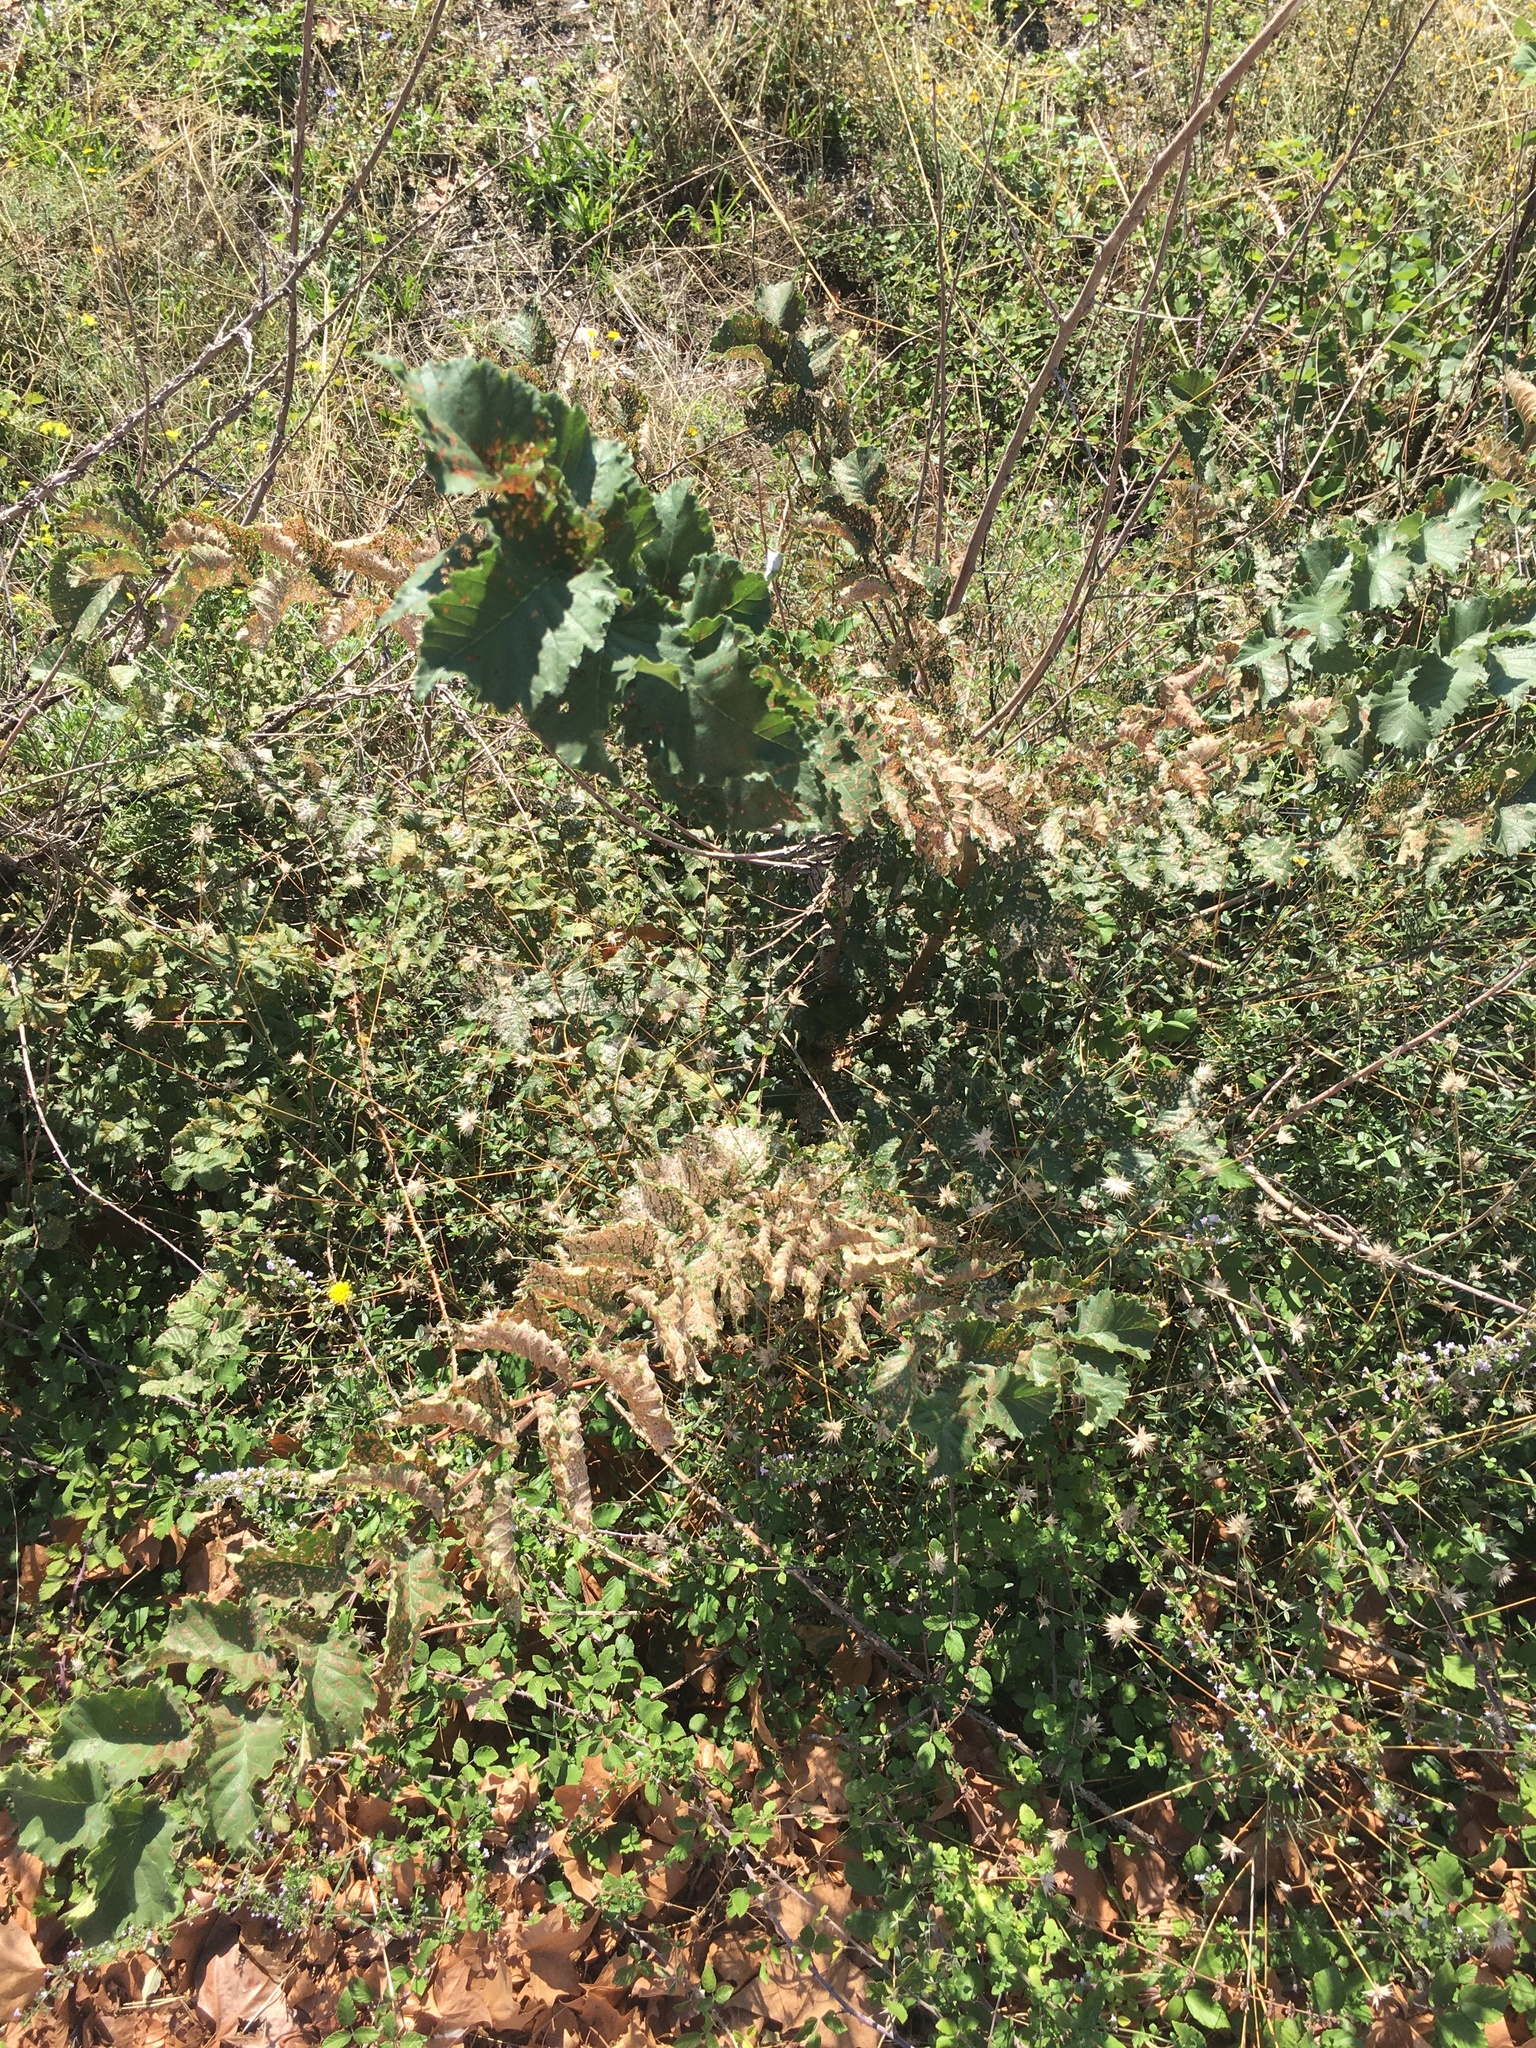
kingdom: Plantae
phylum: Tracheophyta
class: Magnoliopsida
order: Fagales
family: Fagaceae
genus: Quercus
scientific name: Quercus pubescens
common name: Downy oak
